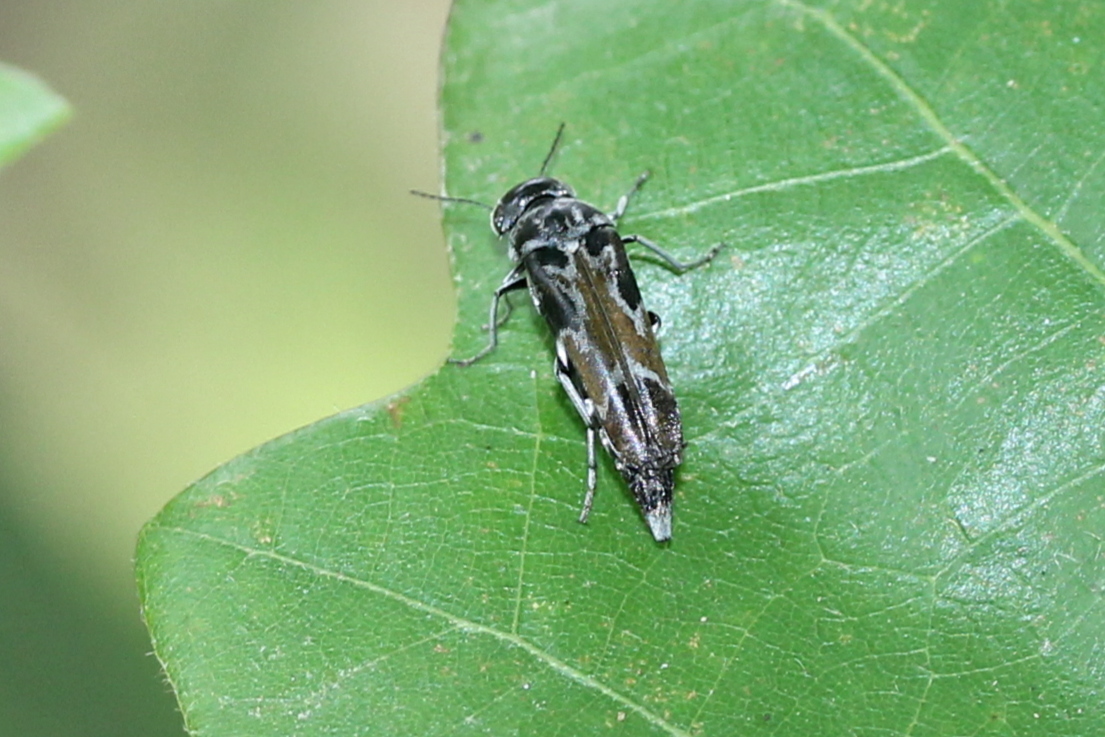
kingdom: Animalia
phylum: Arthropoda
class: Insecta
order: Coleoptera
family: Mordellidae
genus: Glipa
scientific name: Glipa hilaris
